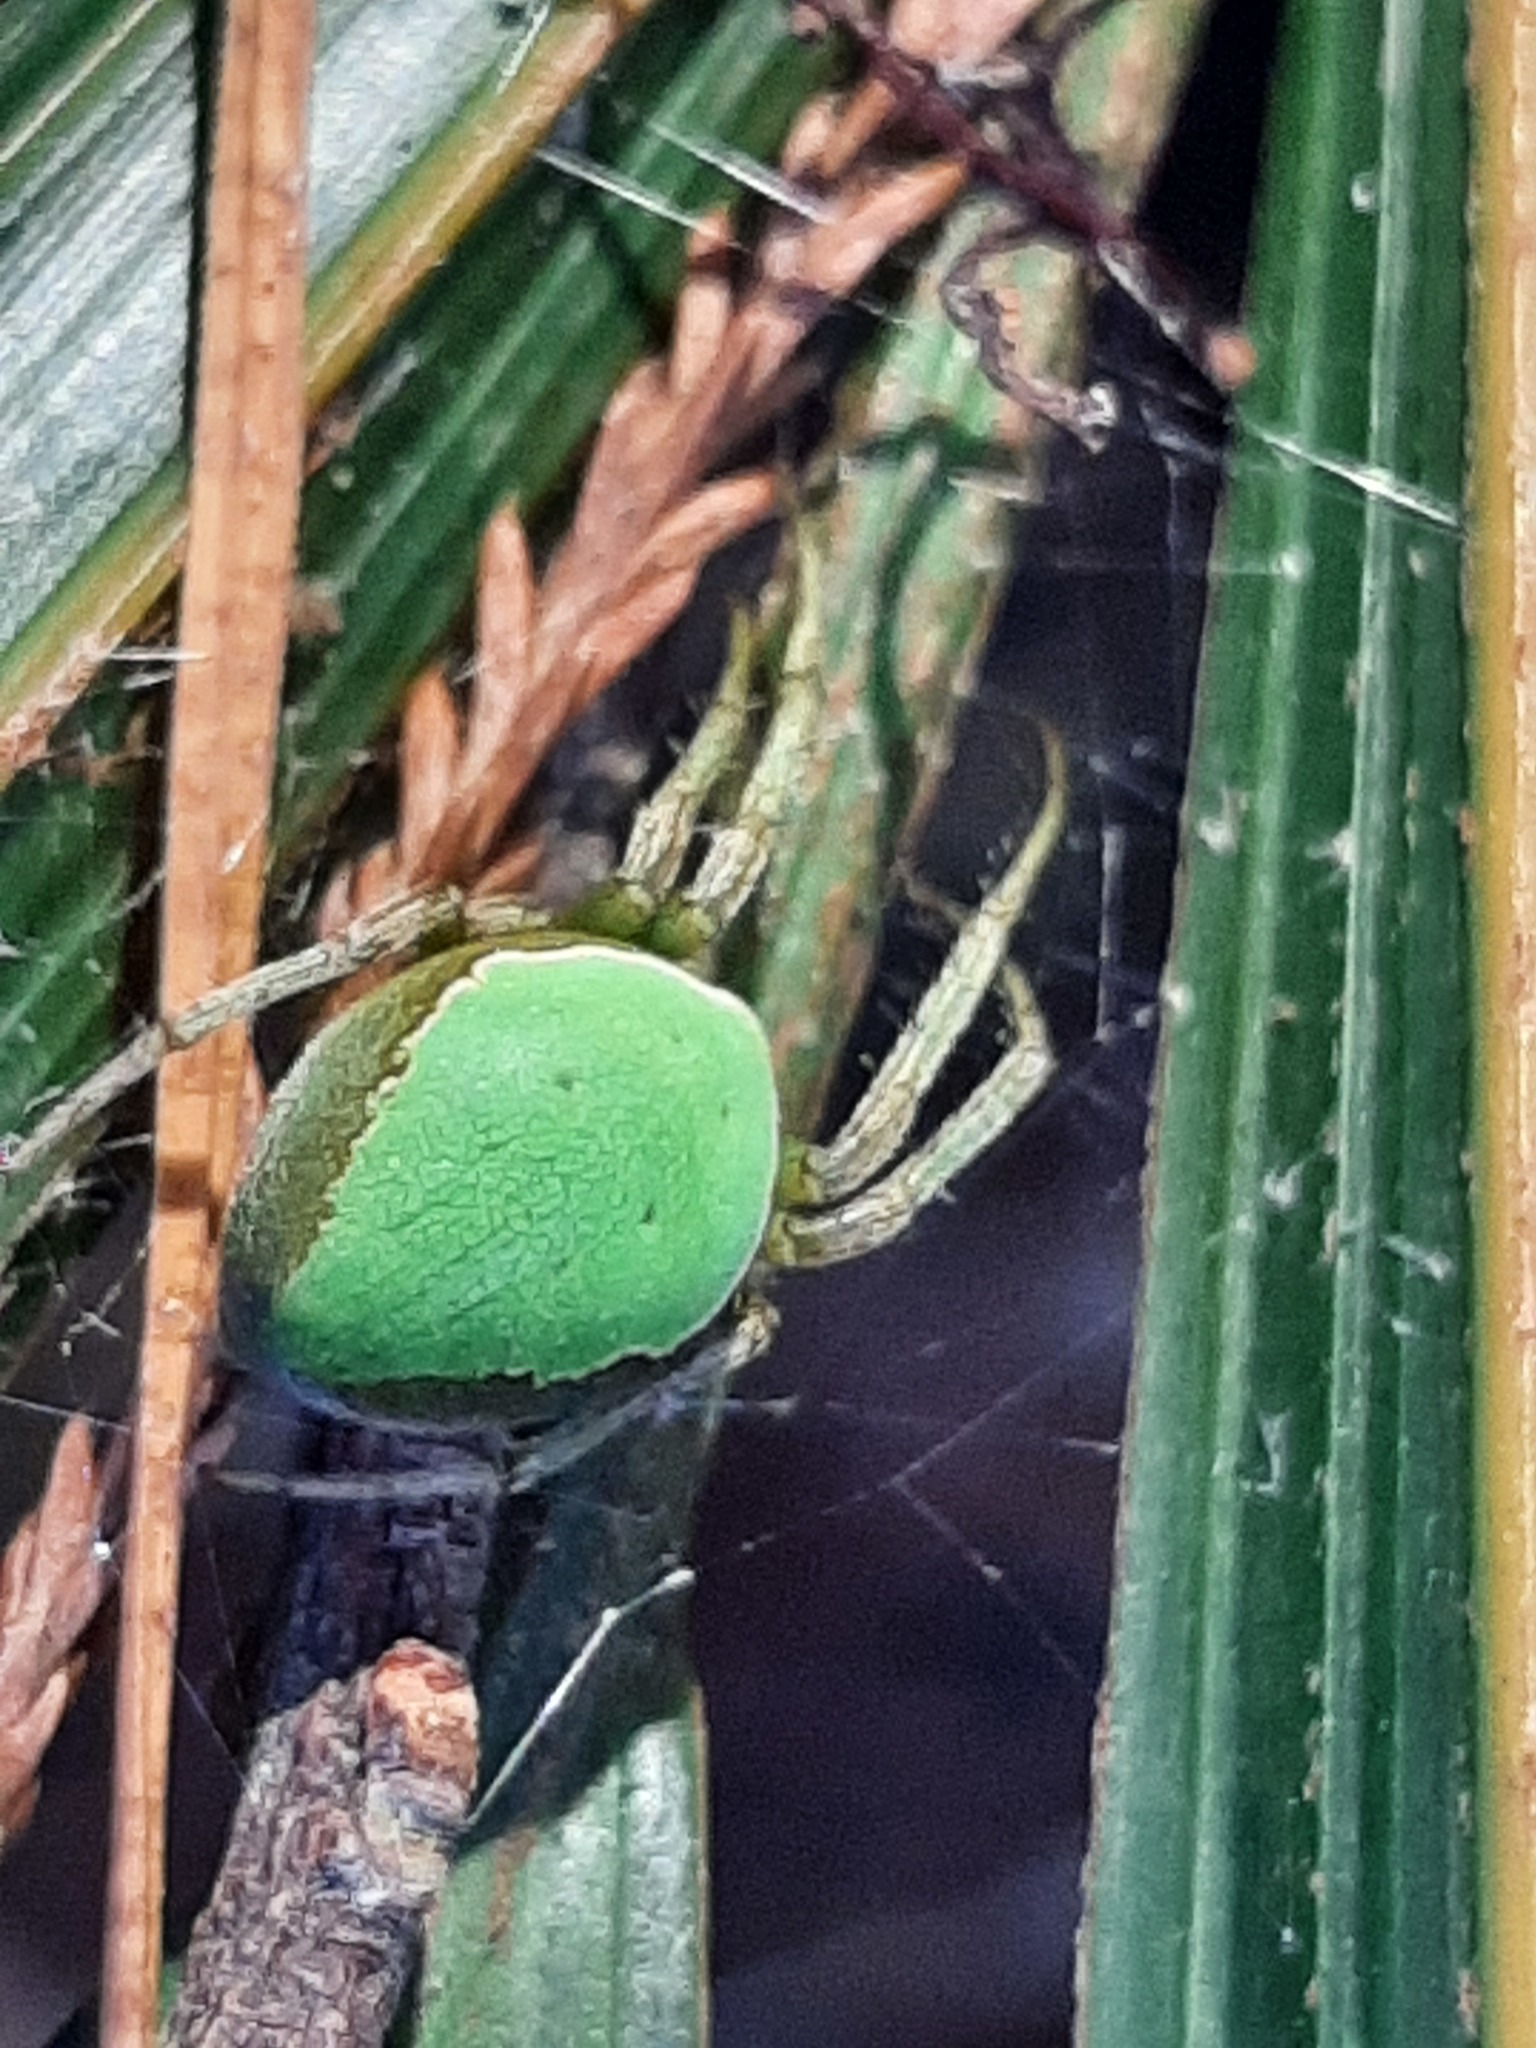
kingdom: Animalia
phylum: Arthropoda
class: Arachnida
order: Araneae
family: Araneidae
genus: Colaranea
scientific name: Colaranea viriditas
